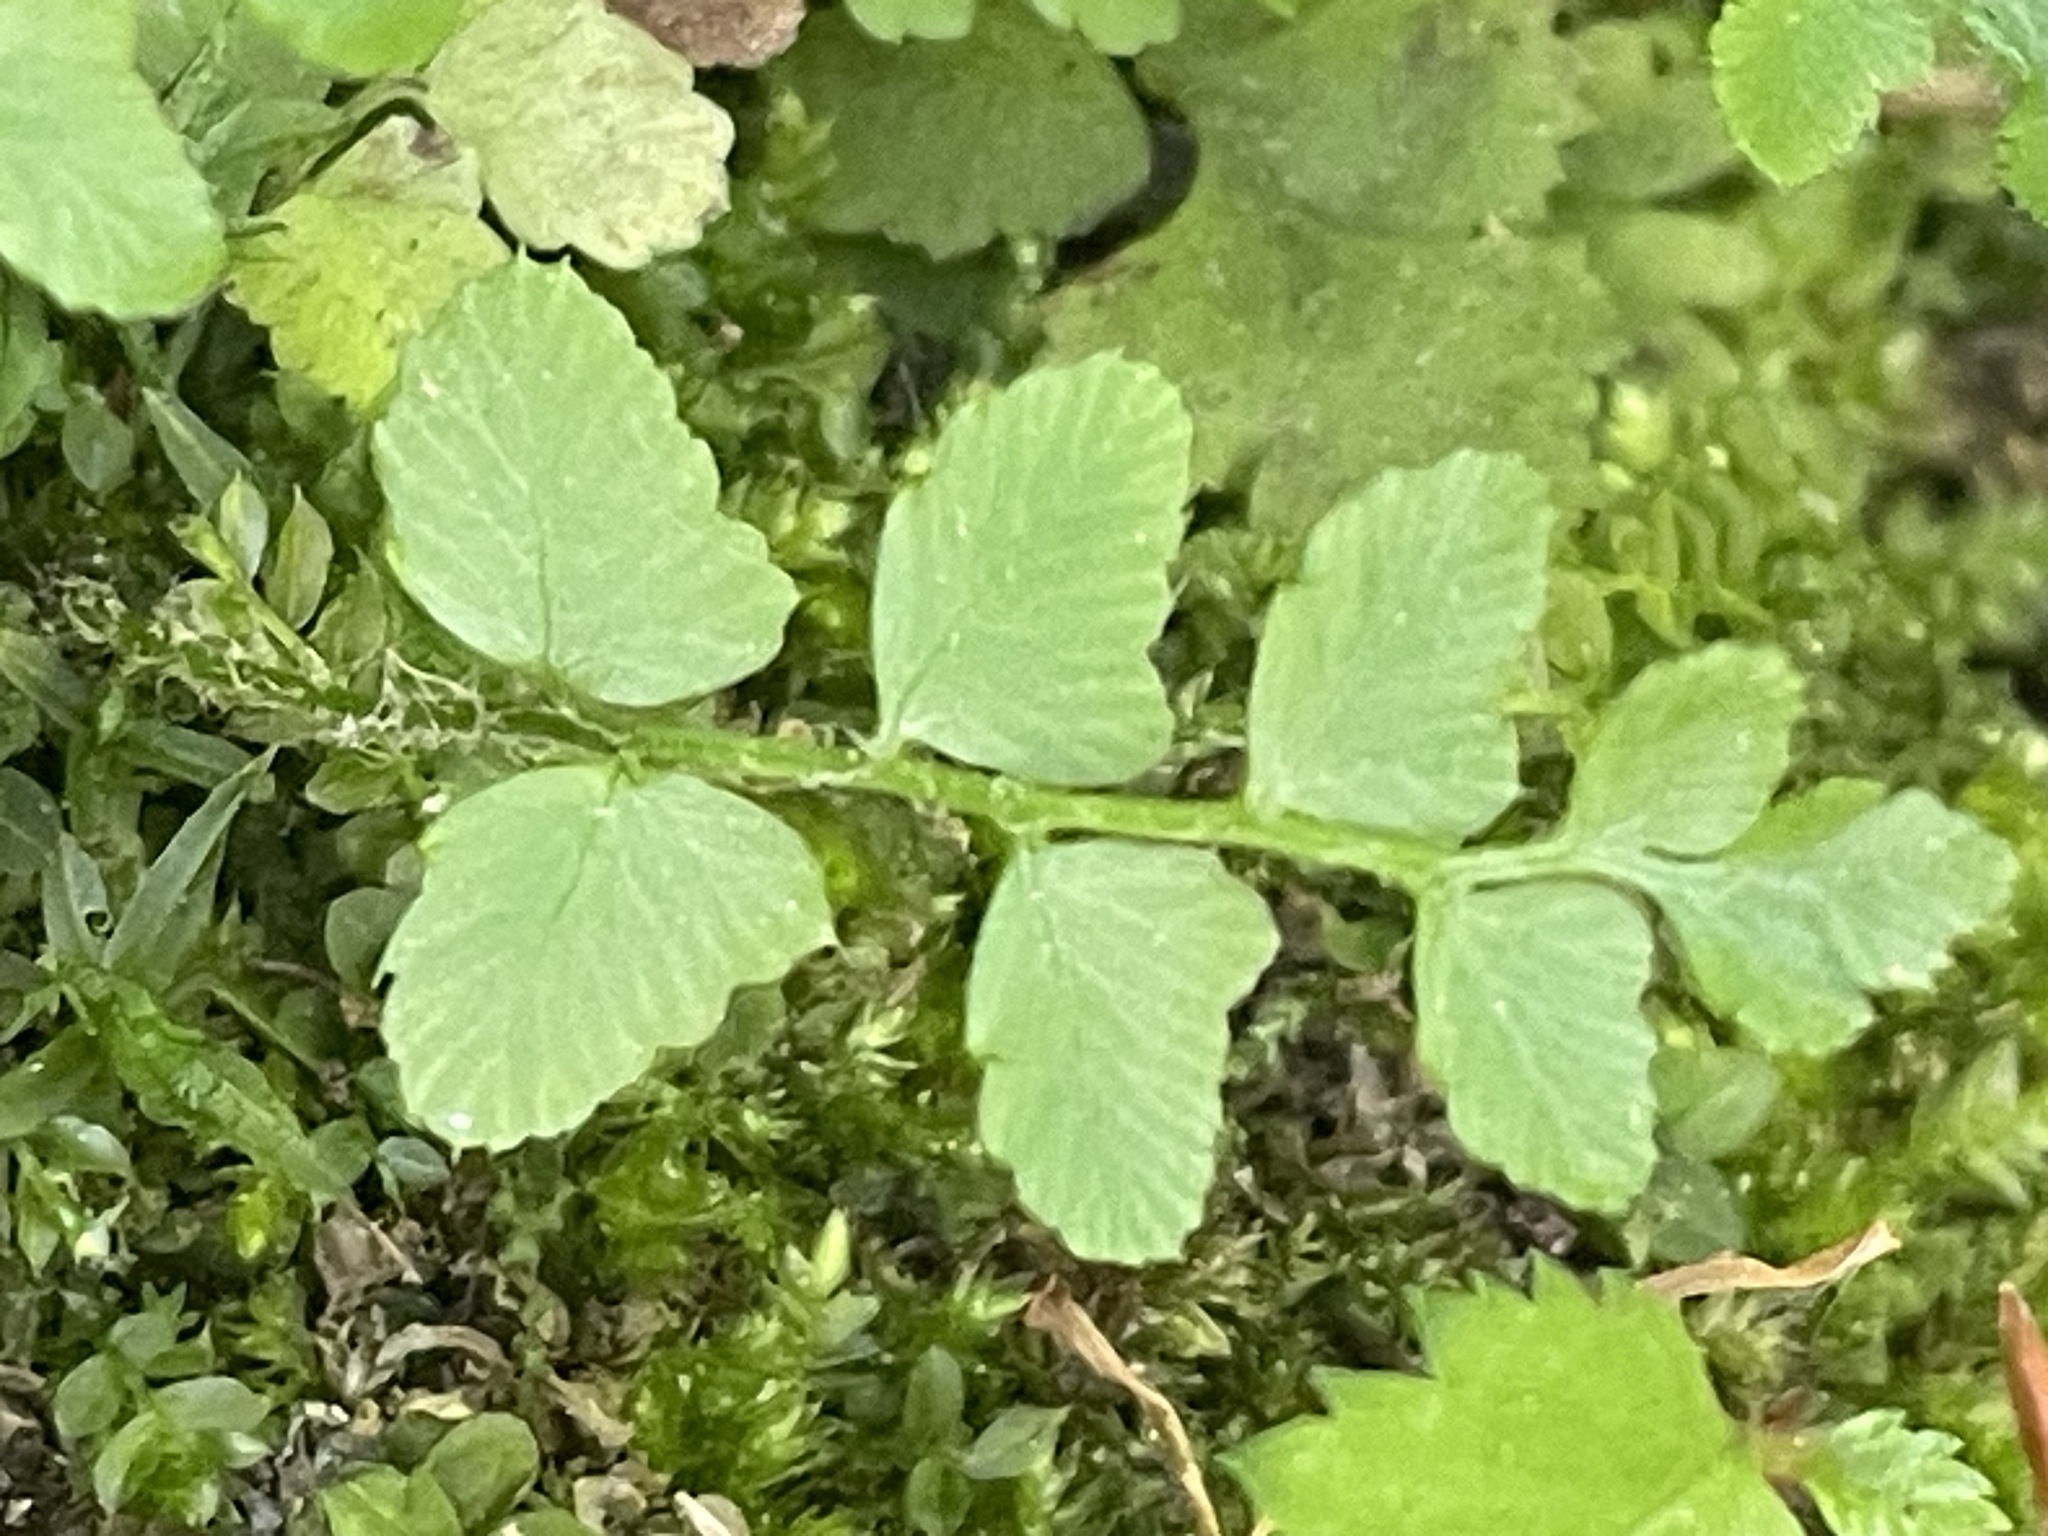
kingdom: Plantae
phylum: Tracheophyta
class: Polypodiopsida
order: Polypodiales
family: Dryopteridaceae
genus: Polystichum
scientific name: Polystichum acrostichoides
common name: Christmas fern
